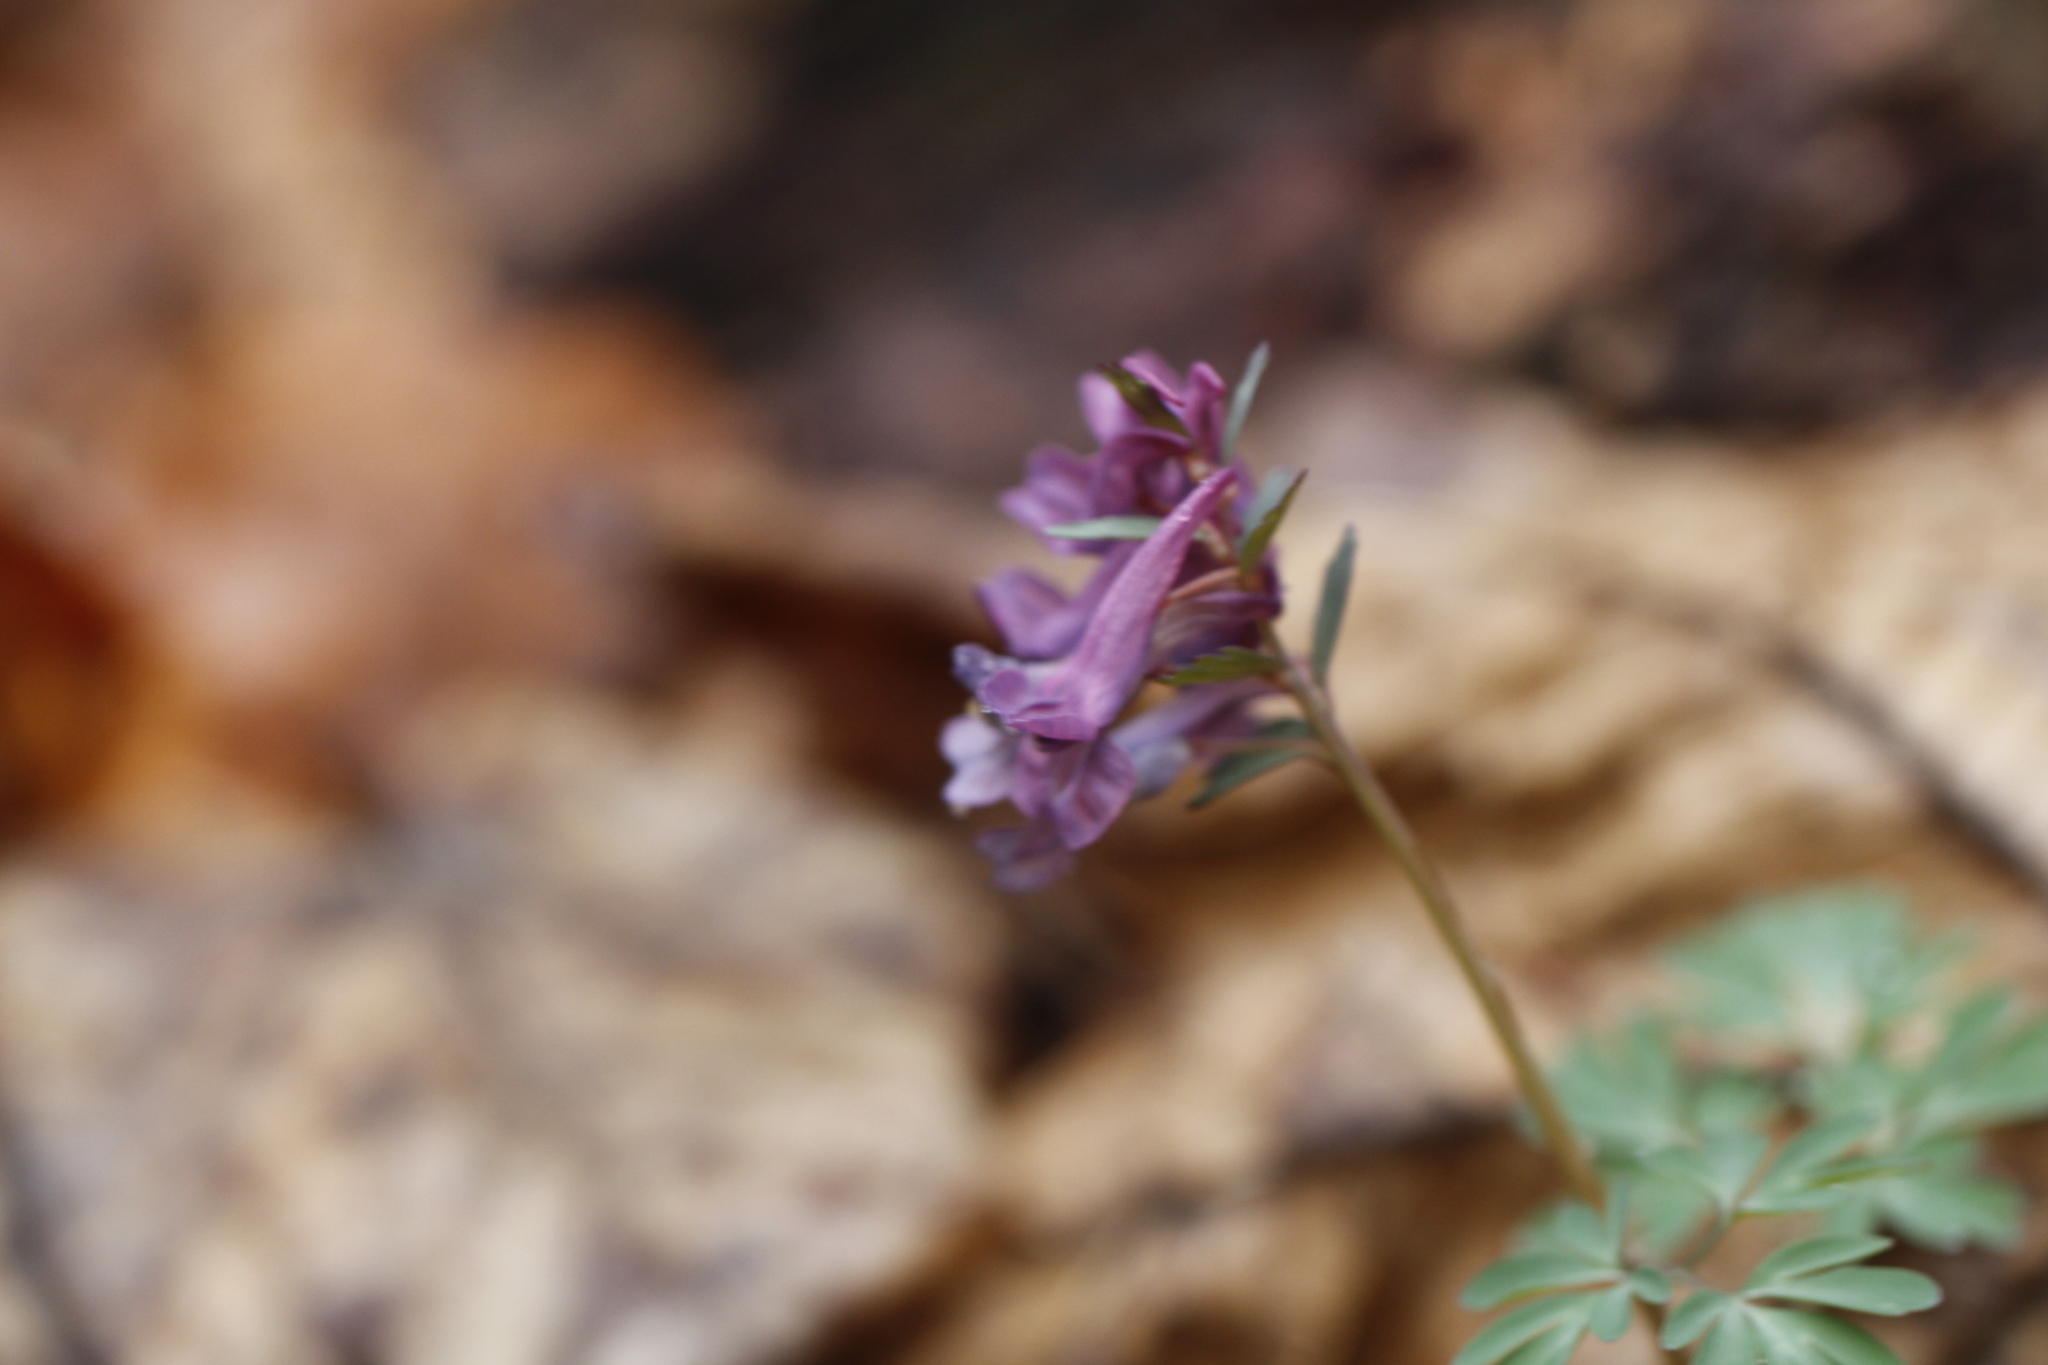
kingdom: Plantae
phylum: Tracheophyta
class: Magnoliopsida
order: Ranunculales
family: Papaveraceae
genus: Corydalis
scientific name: Corydalis solida
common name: Bird-in-a-bush
